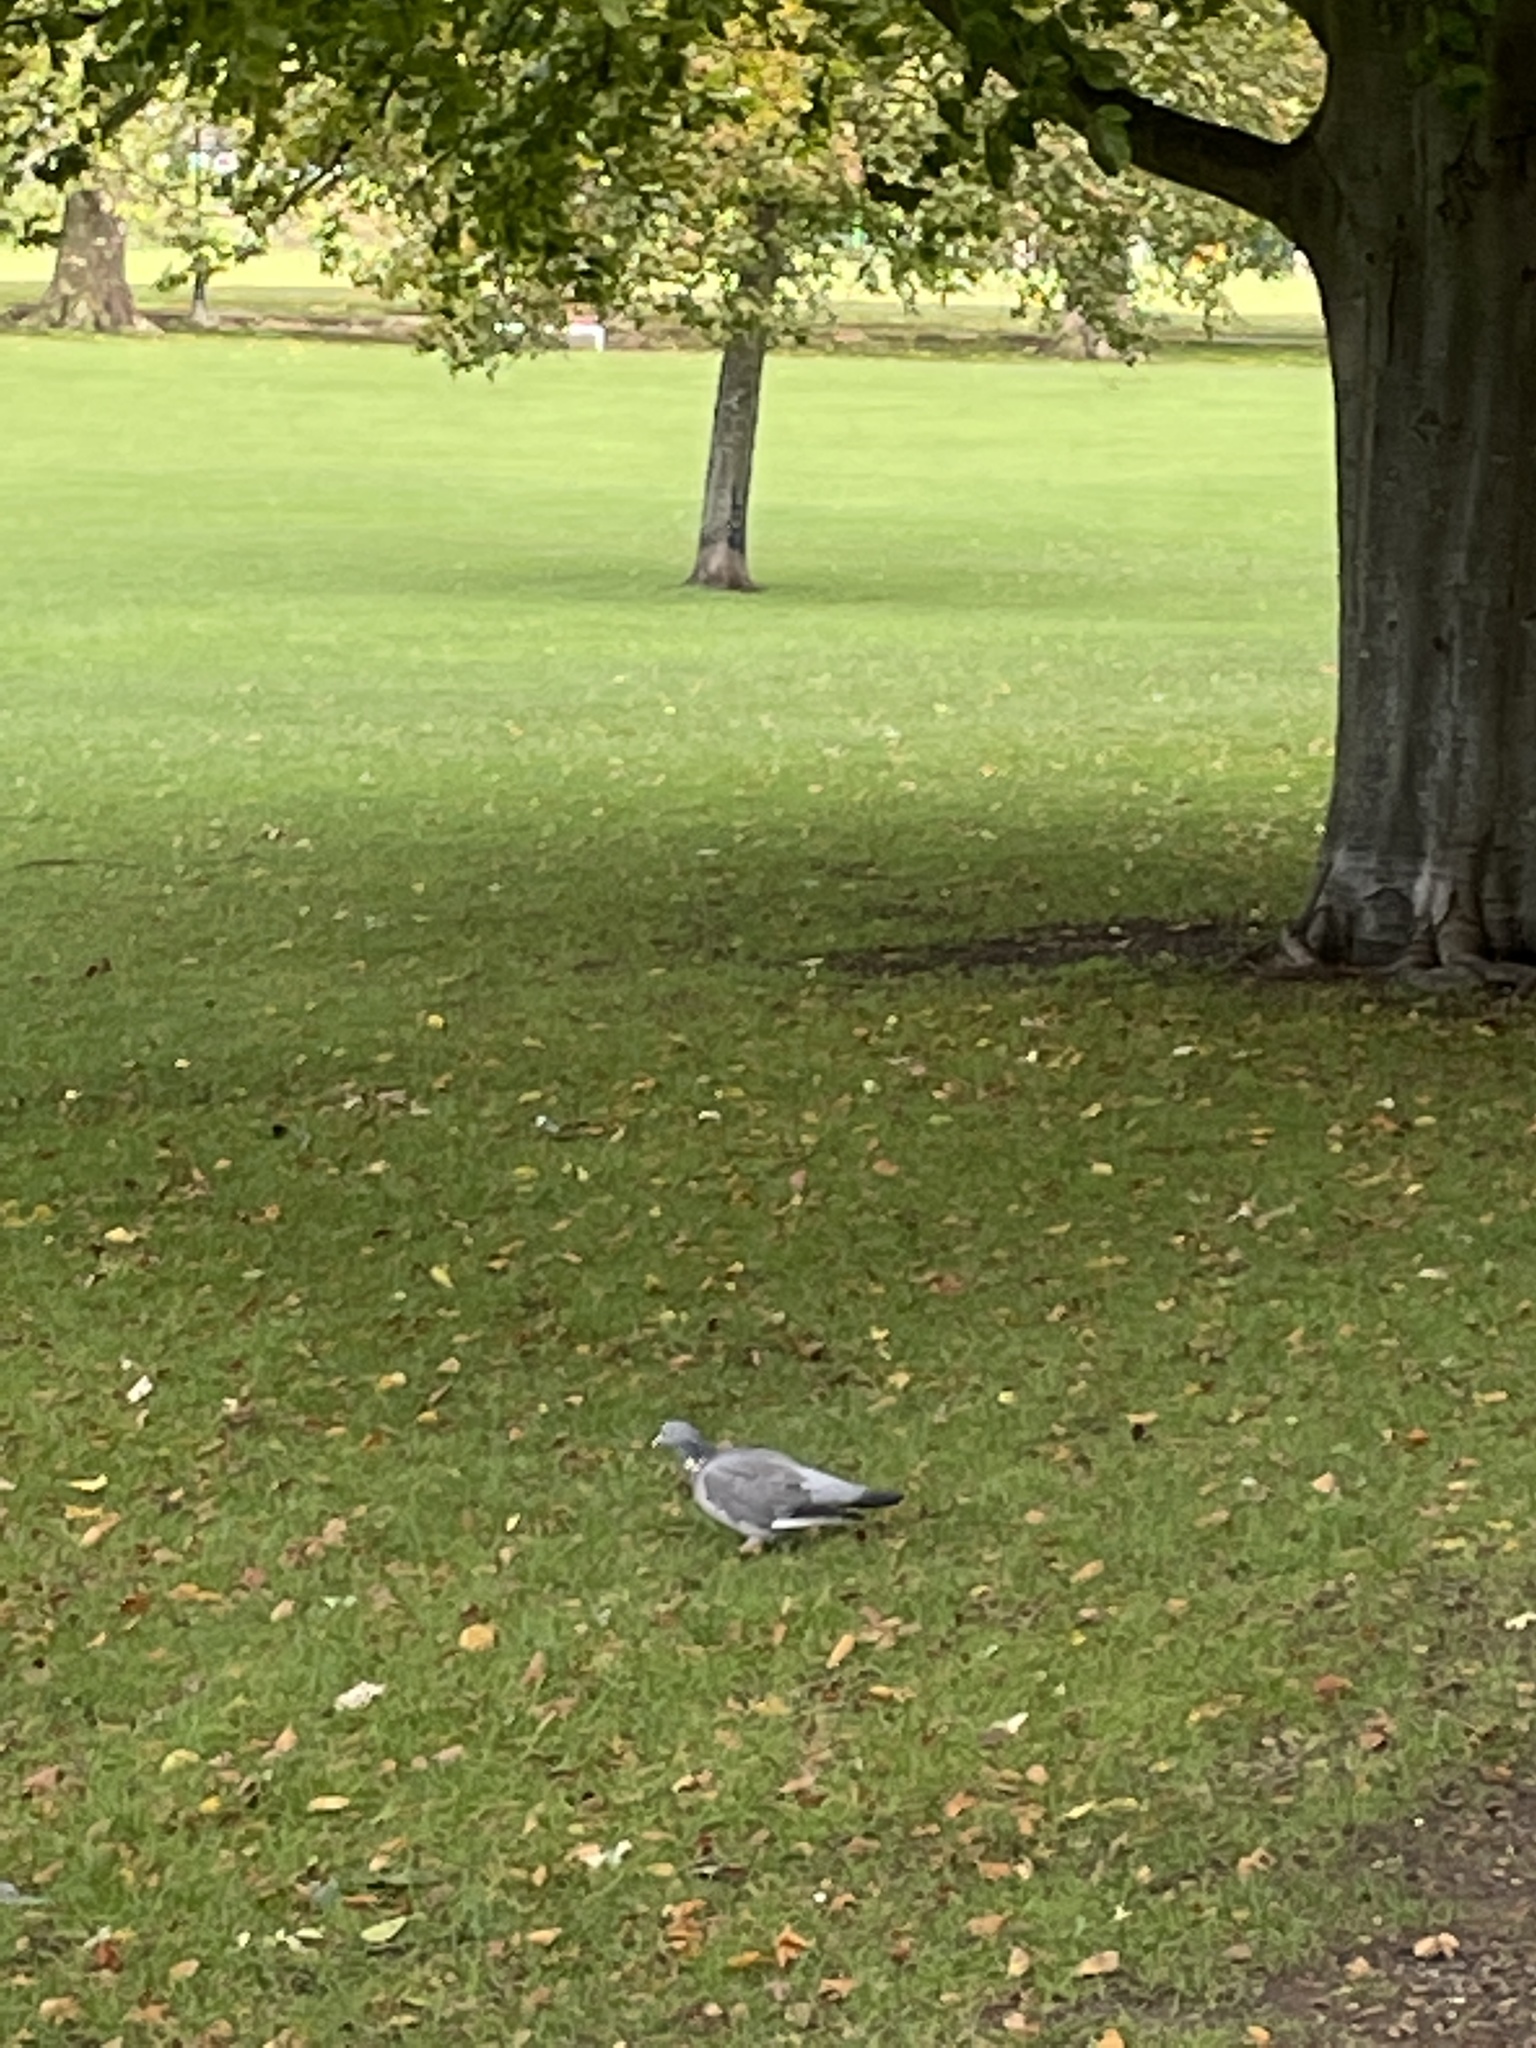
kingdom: Animalia
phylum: Chordata
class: Aves
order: Columbiformes
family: Columbidae
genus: Columba
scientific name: Columba palumbus
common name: Common wood pigeon
